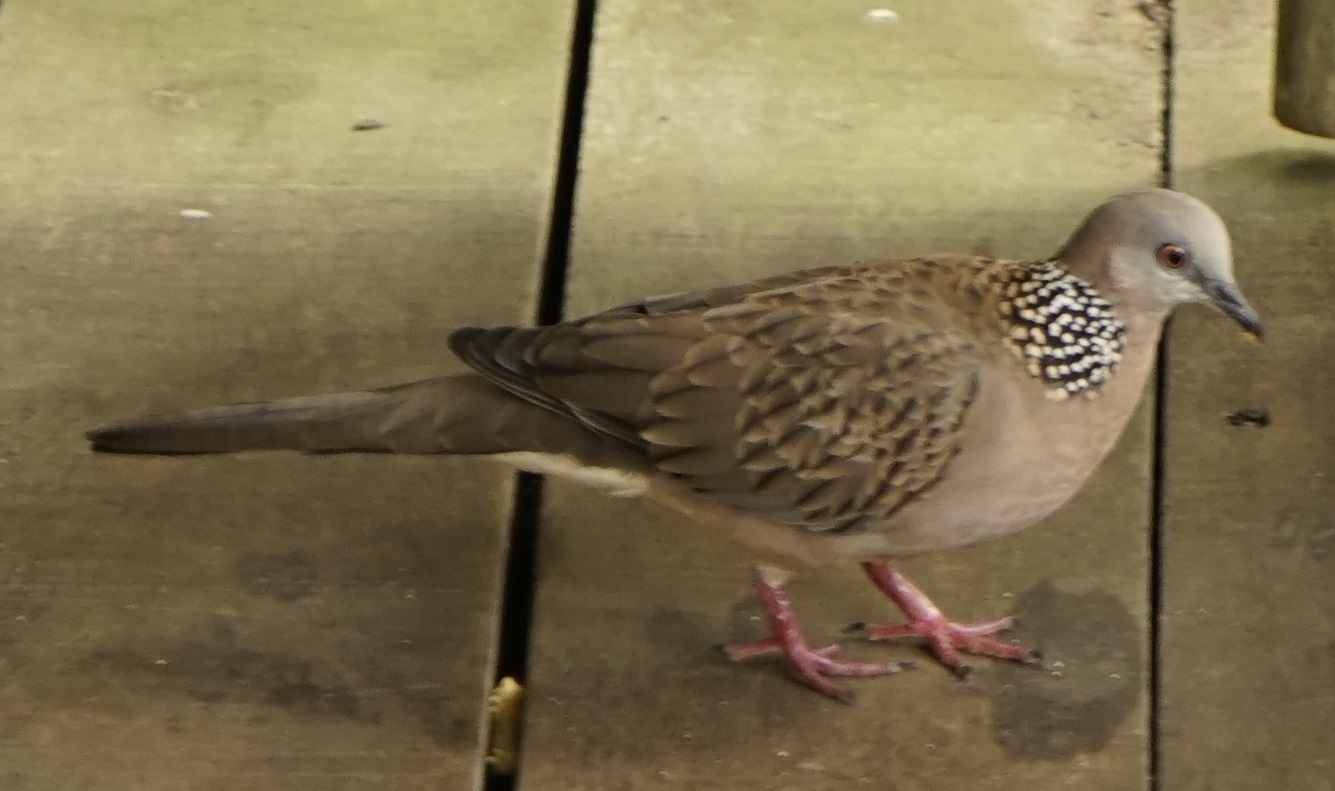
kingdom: Animalia
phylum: Chordata
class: Aves
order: Columbiformes
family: Columbidae
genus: Spilopelia
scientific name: Spilopelia chinensis
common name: Spotted dove
